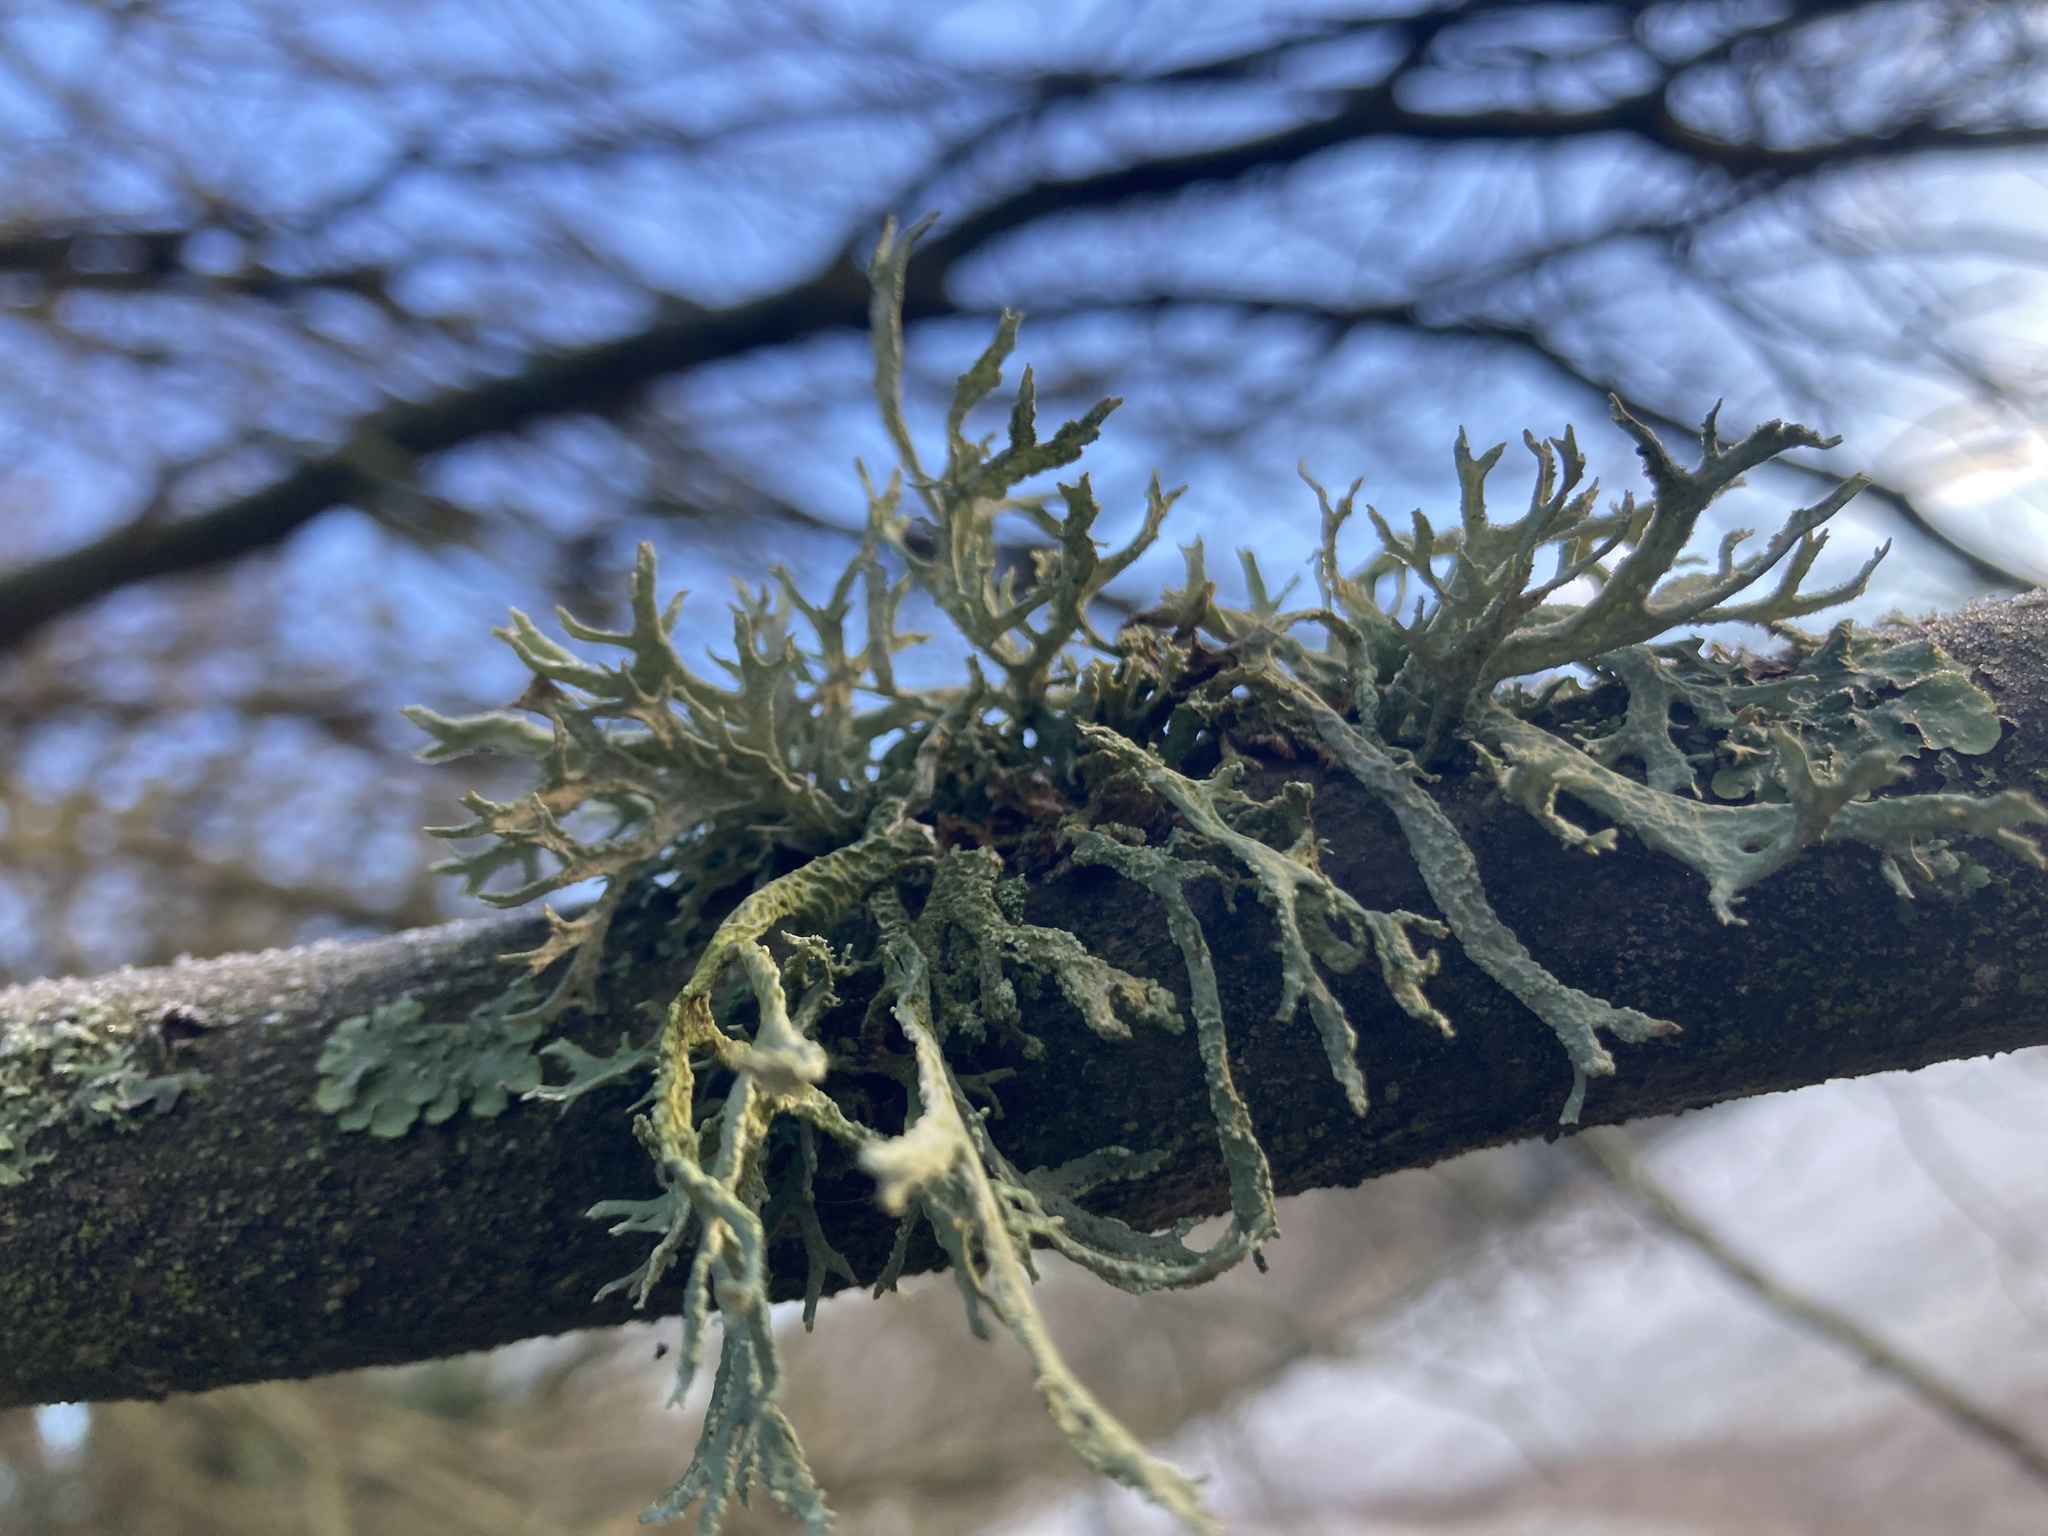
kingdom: Fungi
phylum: Ascomycota
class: Lecanoromycetes
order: Lecanorales
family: Parmeliaceae
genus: Evernia
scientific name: Evernia prunastri
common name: Oak moss
